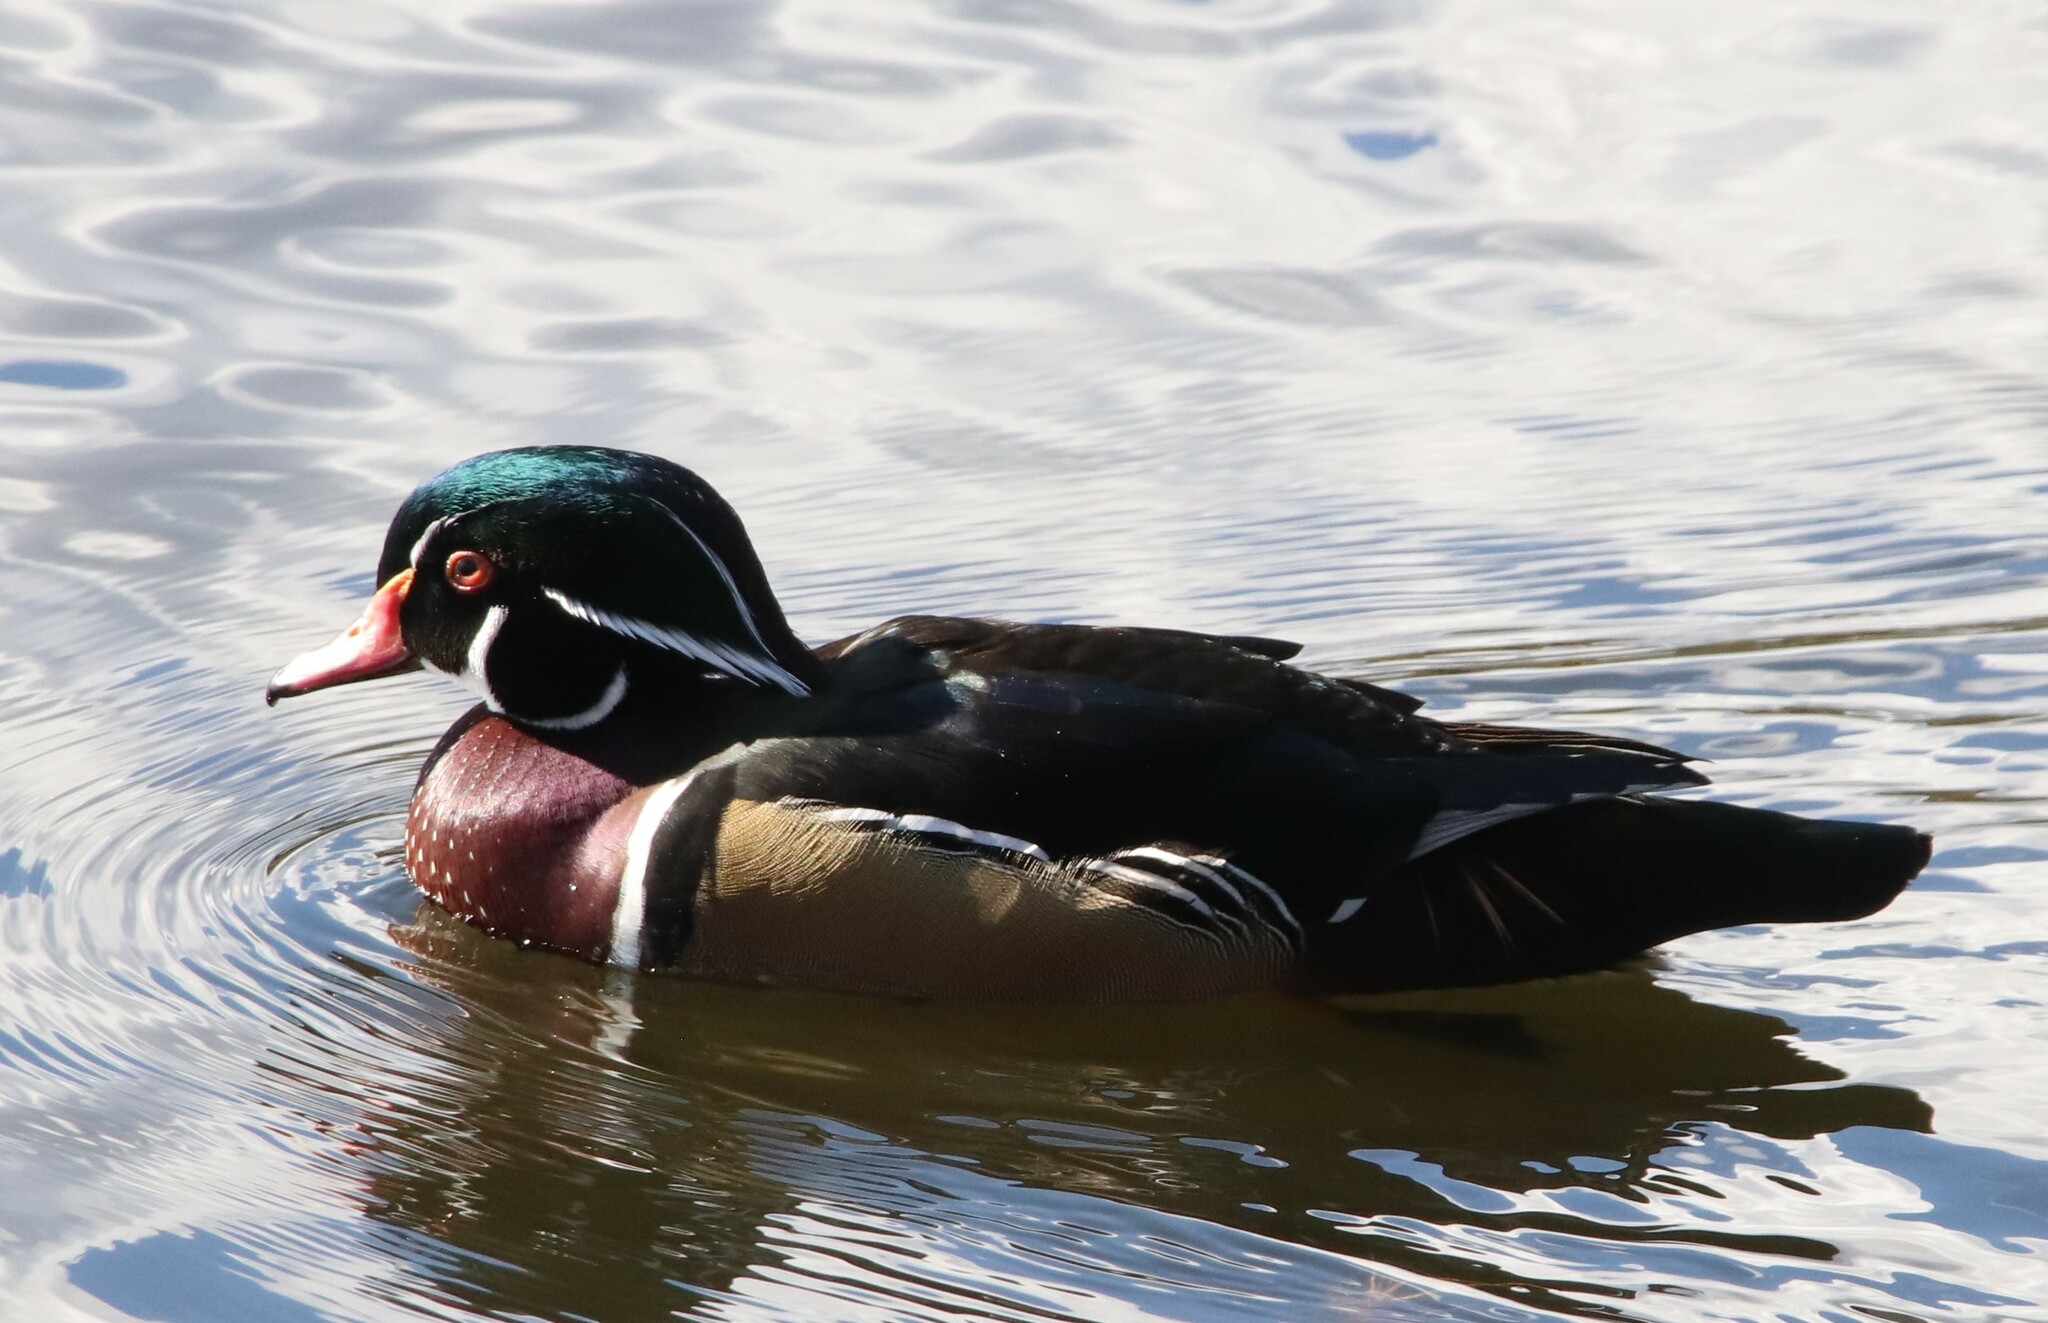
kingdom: Animalia
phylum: Chordata
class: Aves
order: Anseriformes
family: Anatidae
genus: Aix
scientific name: Aix sponsa
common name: Wood duck
